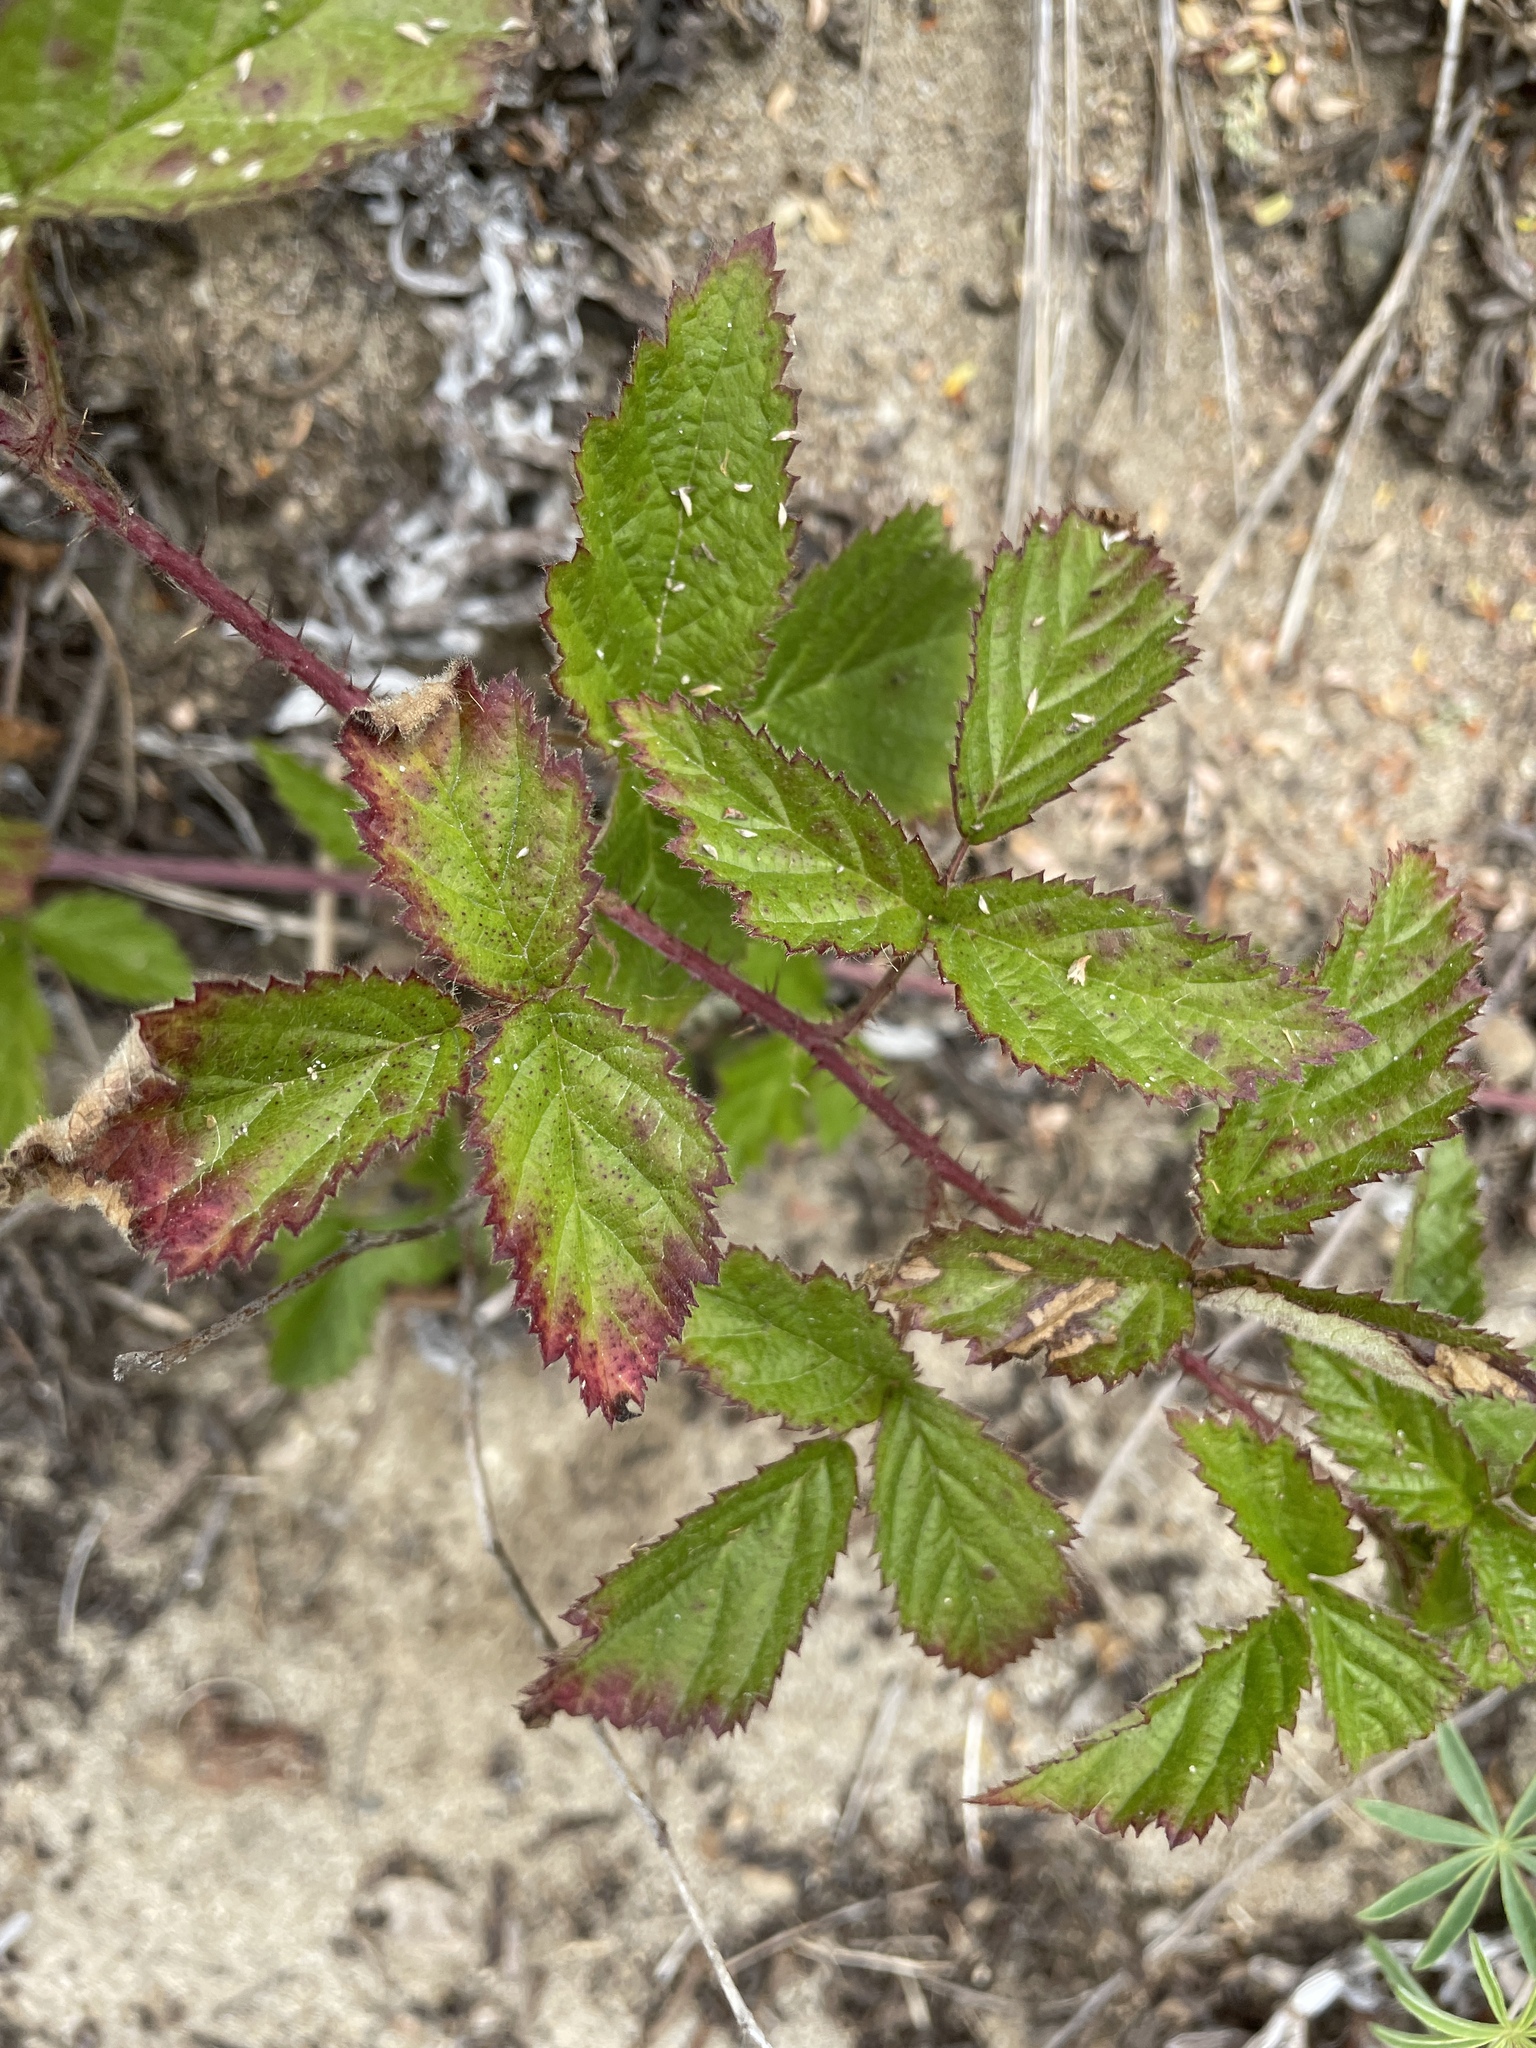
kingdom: Plantae
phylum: Tracheophyta
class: Magnoliopsida
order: Rosales
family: Rosaceae
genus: Rubus
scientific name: Rubus ursinus
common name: Pacific blackberry
